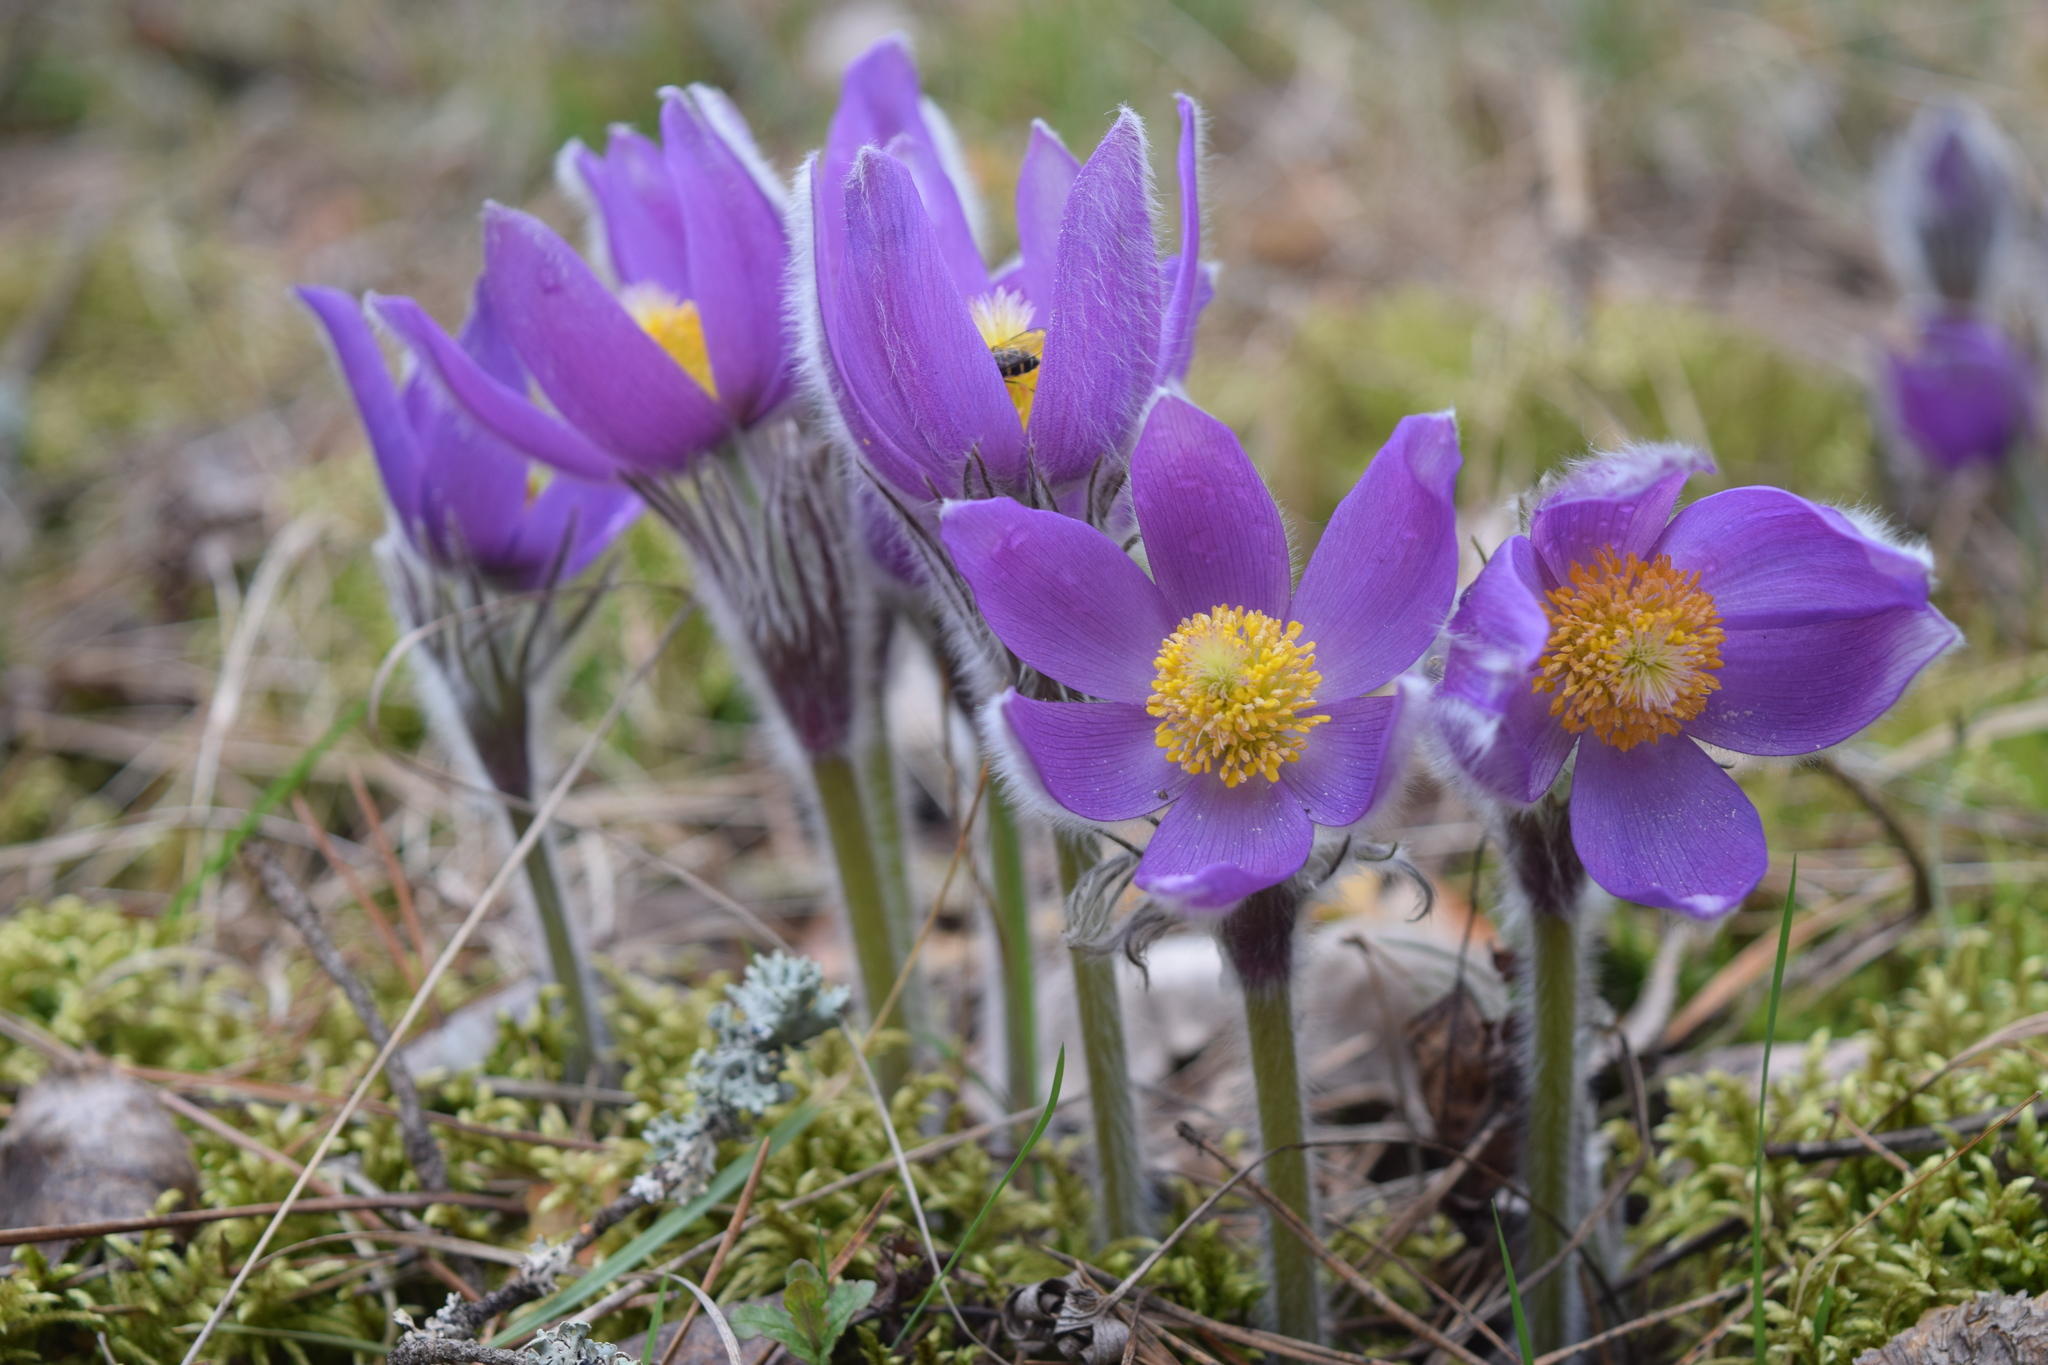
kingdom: Plantae
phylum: Tracheophyta
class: Magnoliopsida
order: Ranunculales
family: Ranunculaceae
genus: Pulsatilla
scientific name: Pulsatilla patens
